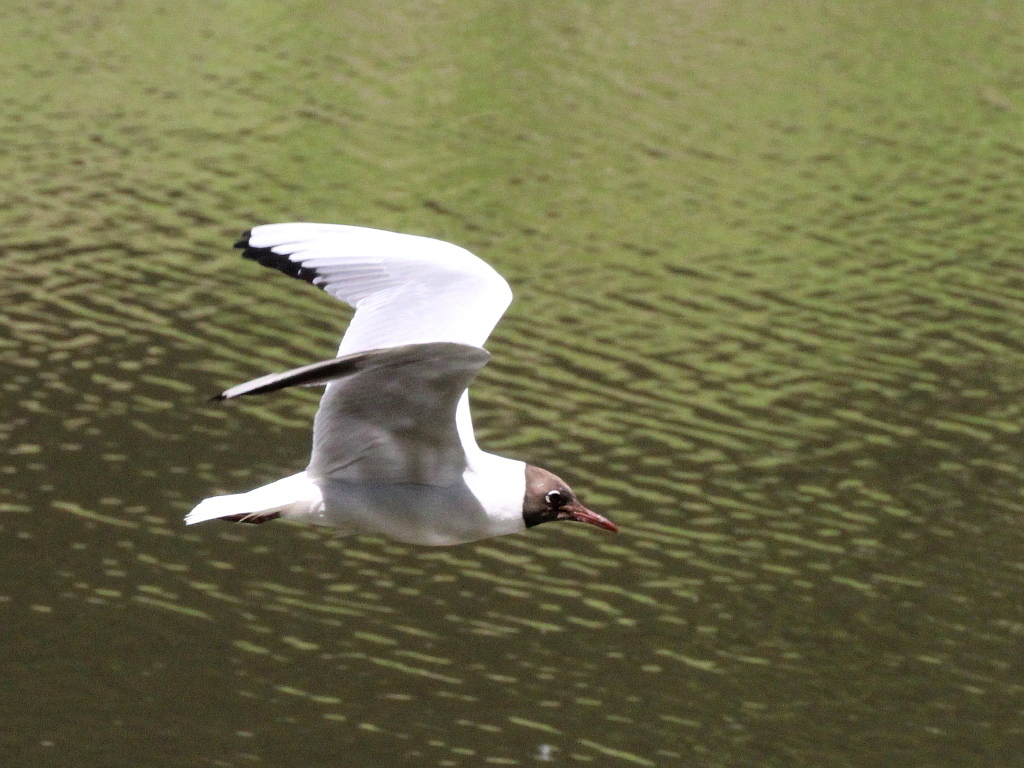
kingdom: Animalia
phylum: Chordata
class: Aves
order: Charadriiformes
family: Laridae
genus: Chroicocephalus
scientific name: Chroicocephalus ridibundus
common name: Black-headed gull
